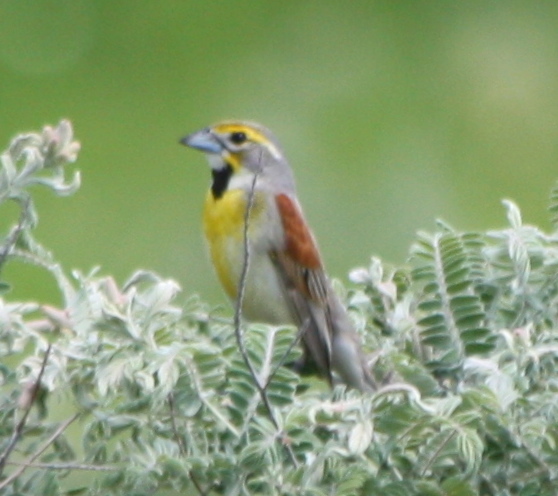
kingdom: Animalia
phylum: Chordata
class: Aves
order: Passeriformes
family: Cardinalidae
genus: Spiza
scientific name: Spiza americana
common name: Dickcissel
